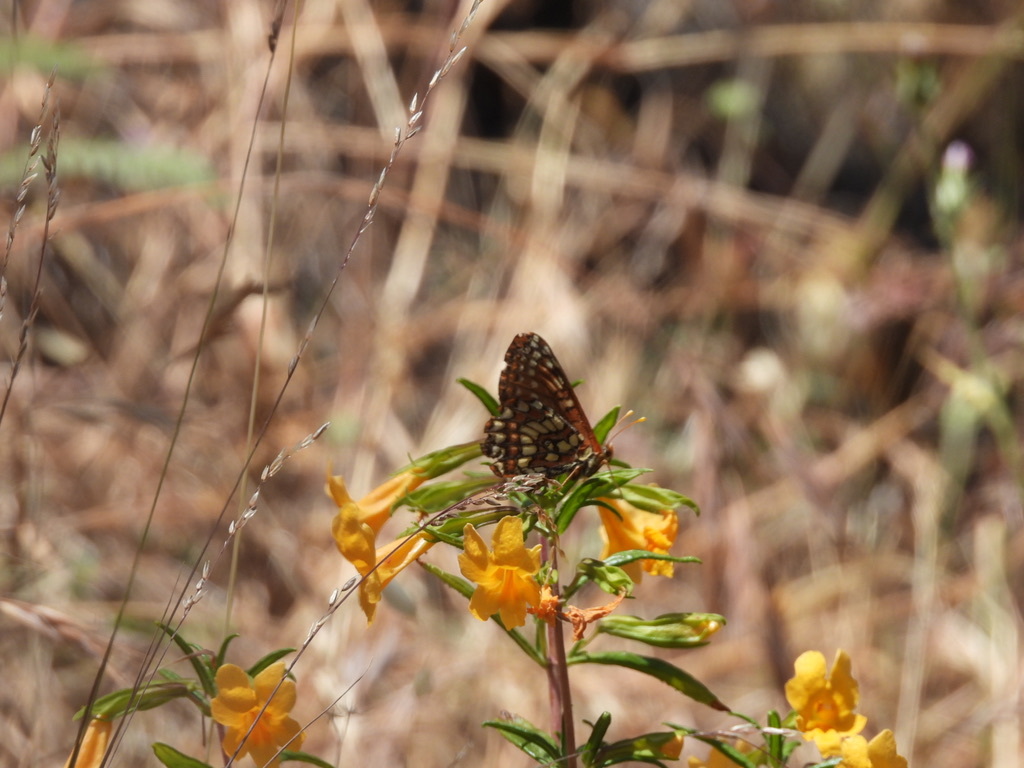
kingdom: Animalia
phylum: Arthropoda
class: Insecta
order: Lepidoptera
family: Nymphalidae
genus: Occidryas
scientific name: Occidryas chalcedona
